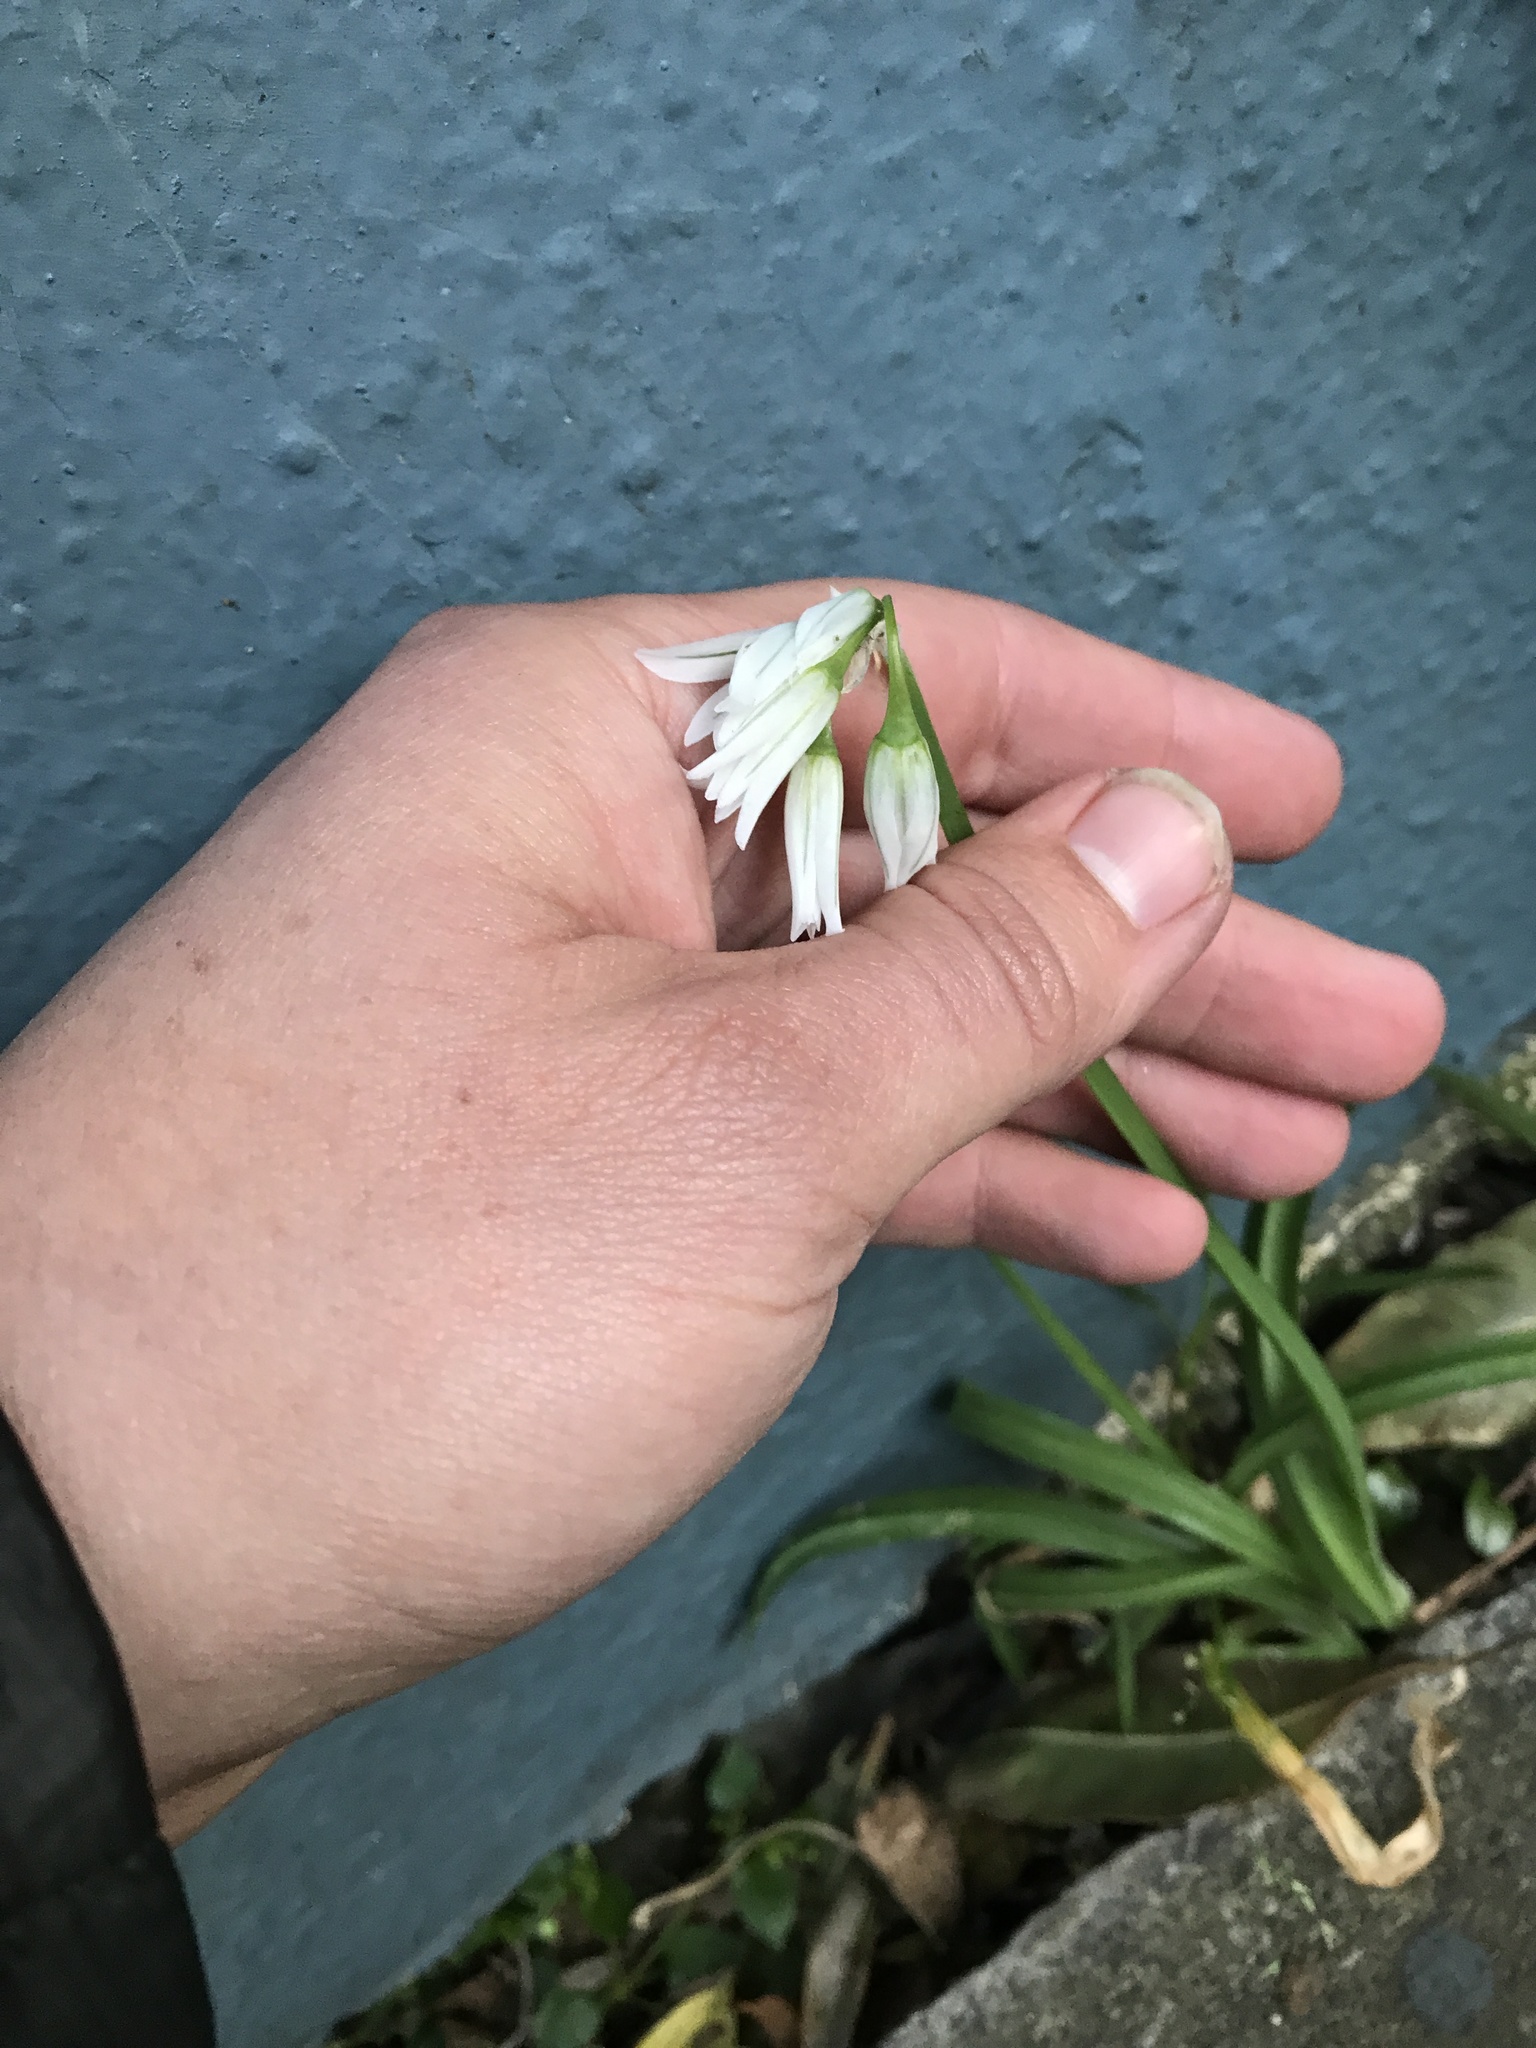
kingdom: Plantae
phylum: Tracheophyta
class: Liliopsida
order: Asparagales
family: Amaryllidaceae
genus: Allium
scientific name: Allium triquetrum
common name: Three-cornered garlic
